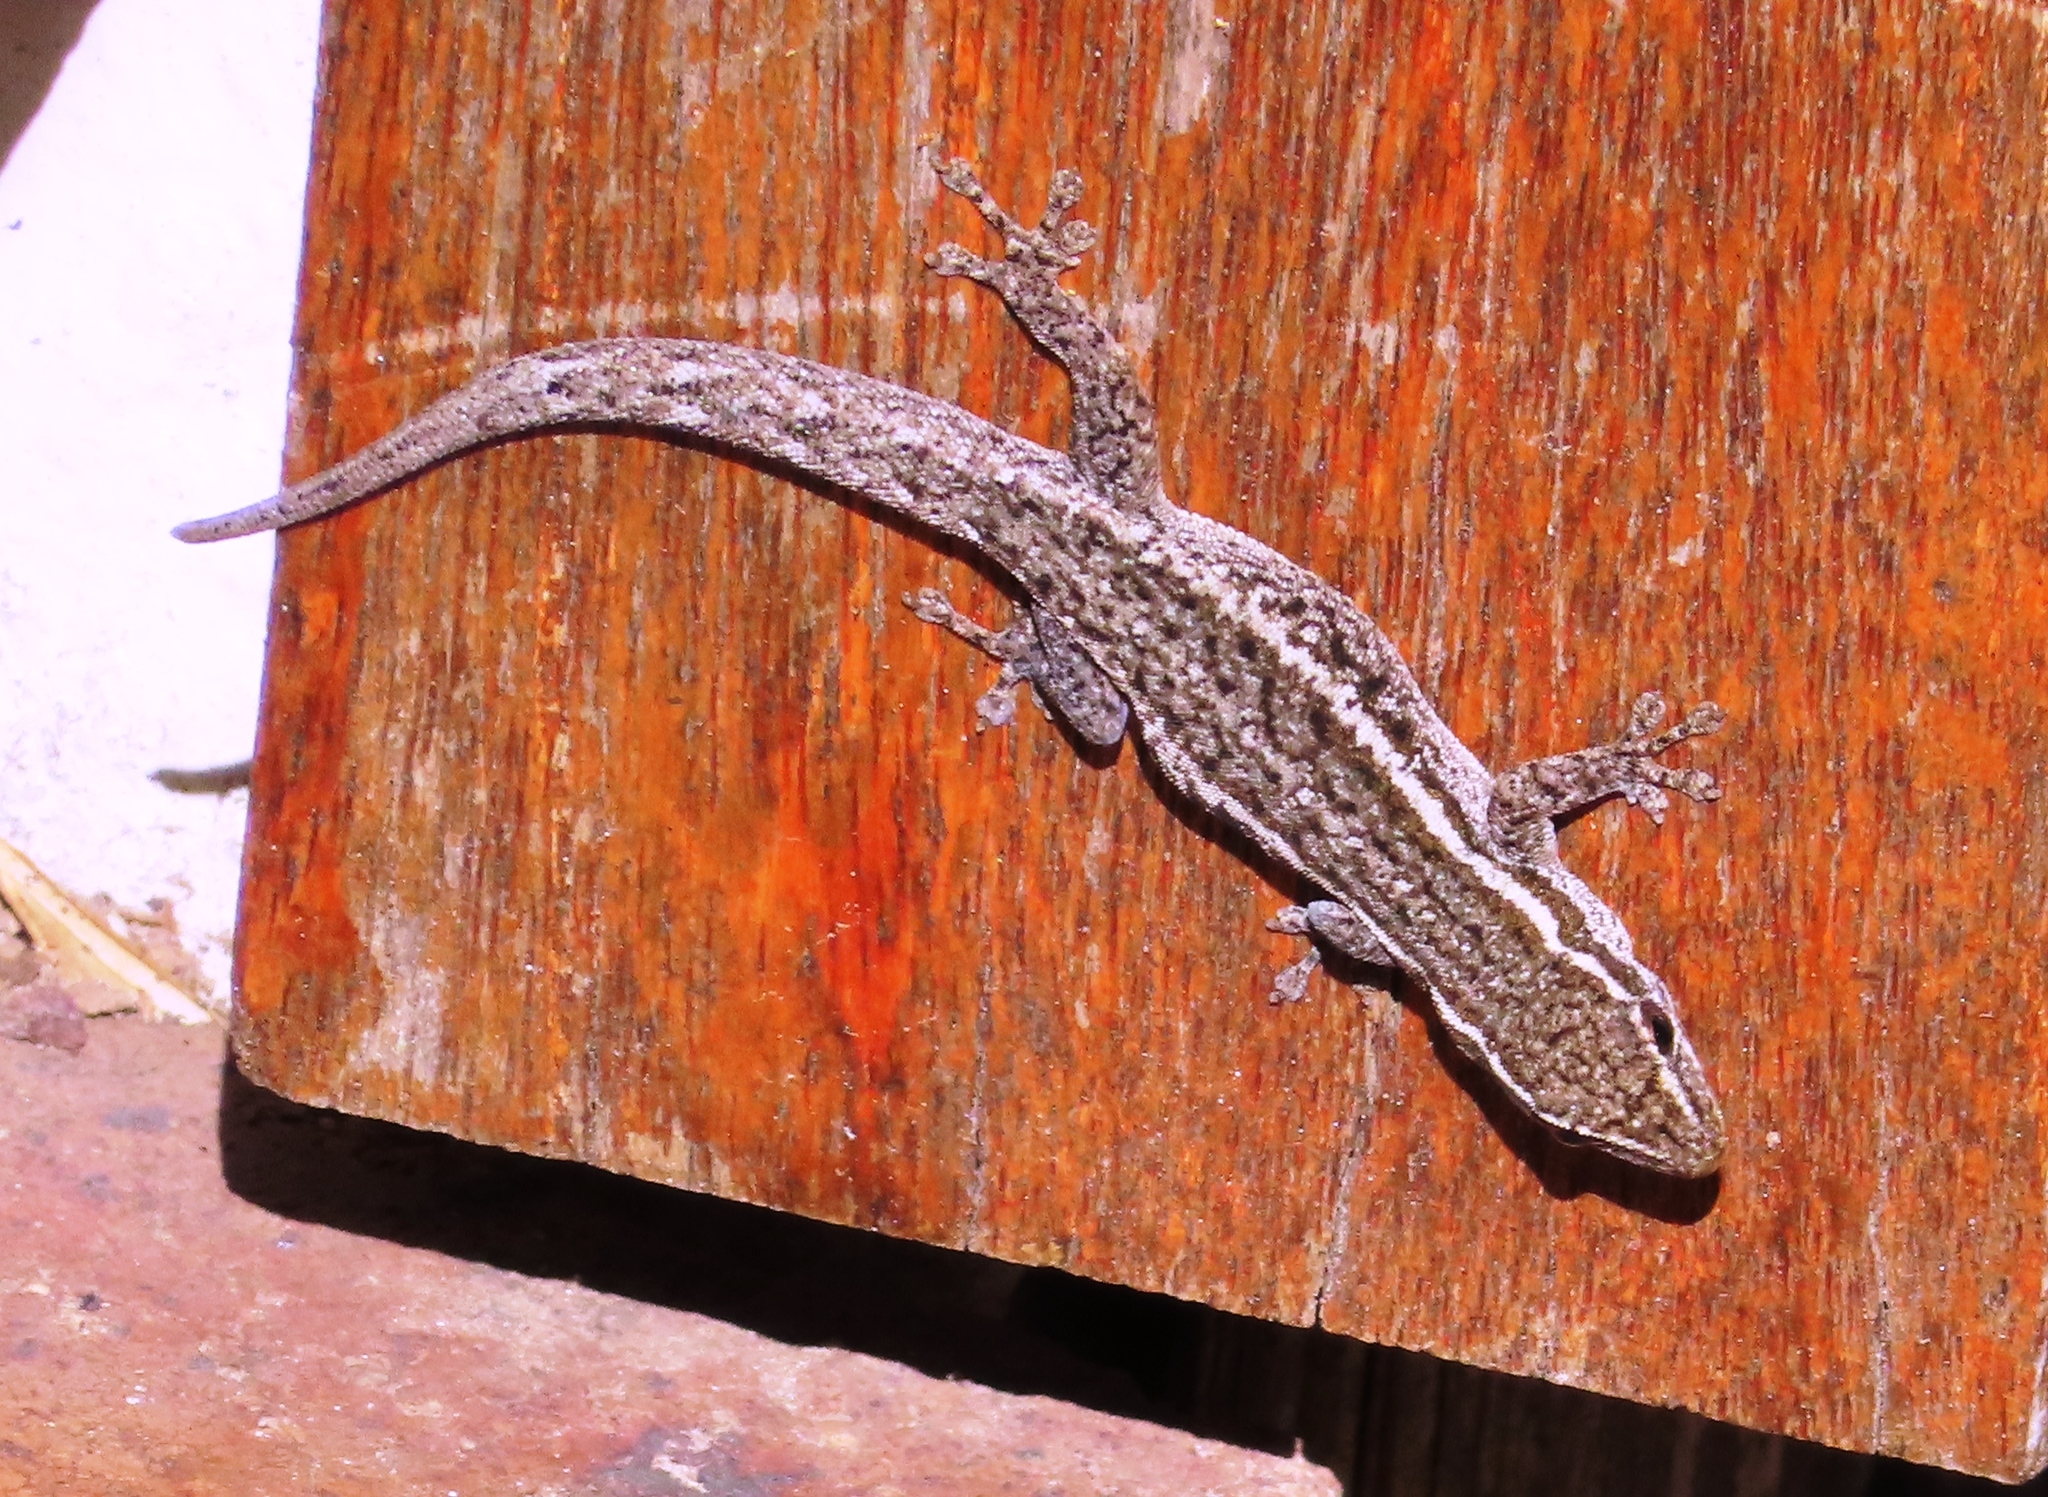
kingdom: Animalia
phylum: Chordata
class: Squamata
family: Gekkonidae
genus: Lygodactylus
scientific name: Lygodactylus capensis
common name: Cape dwarf gecko
